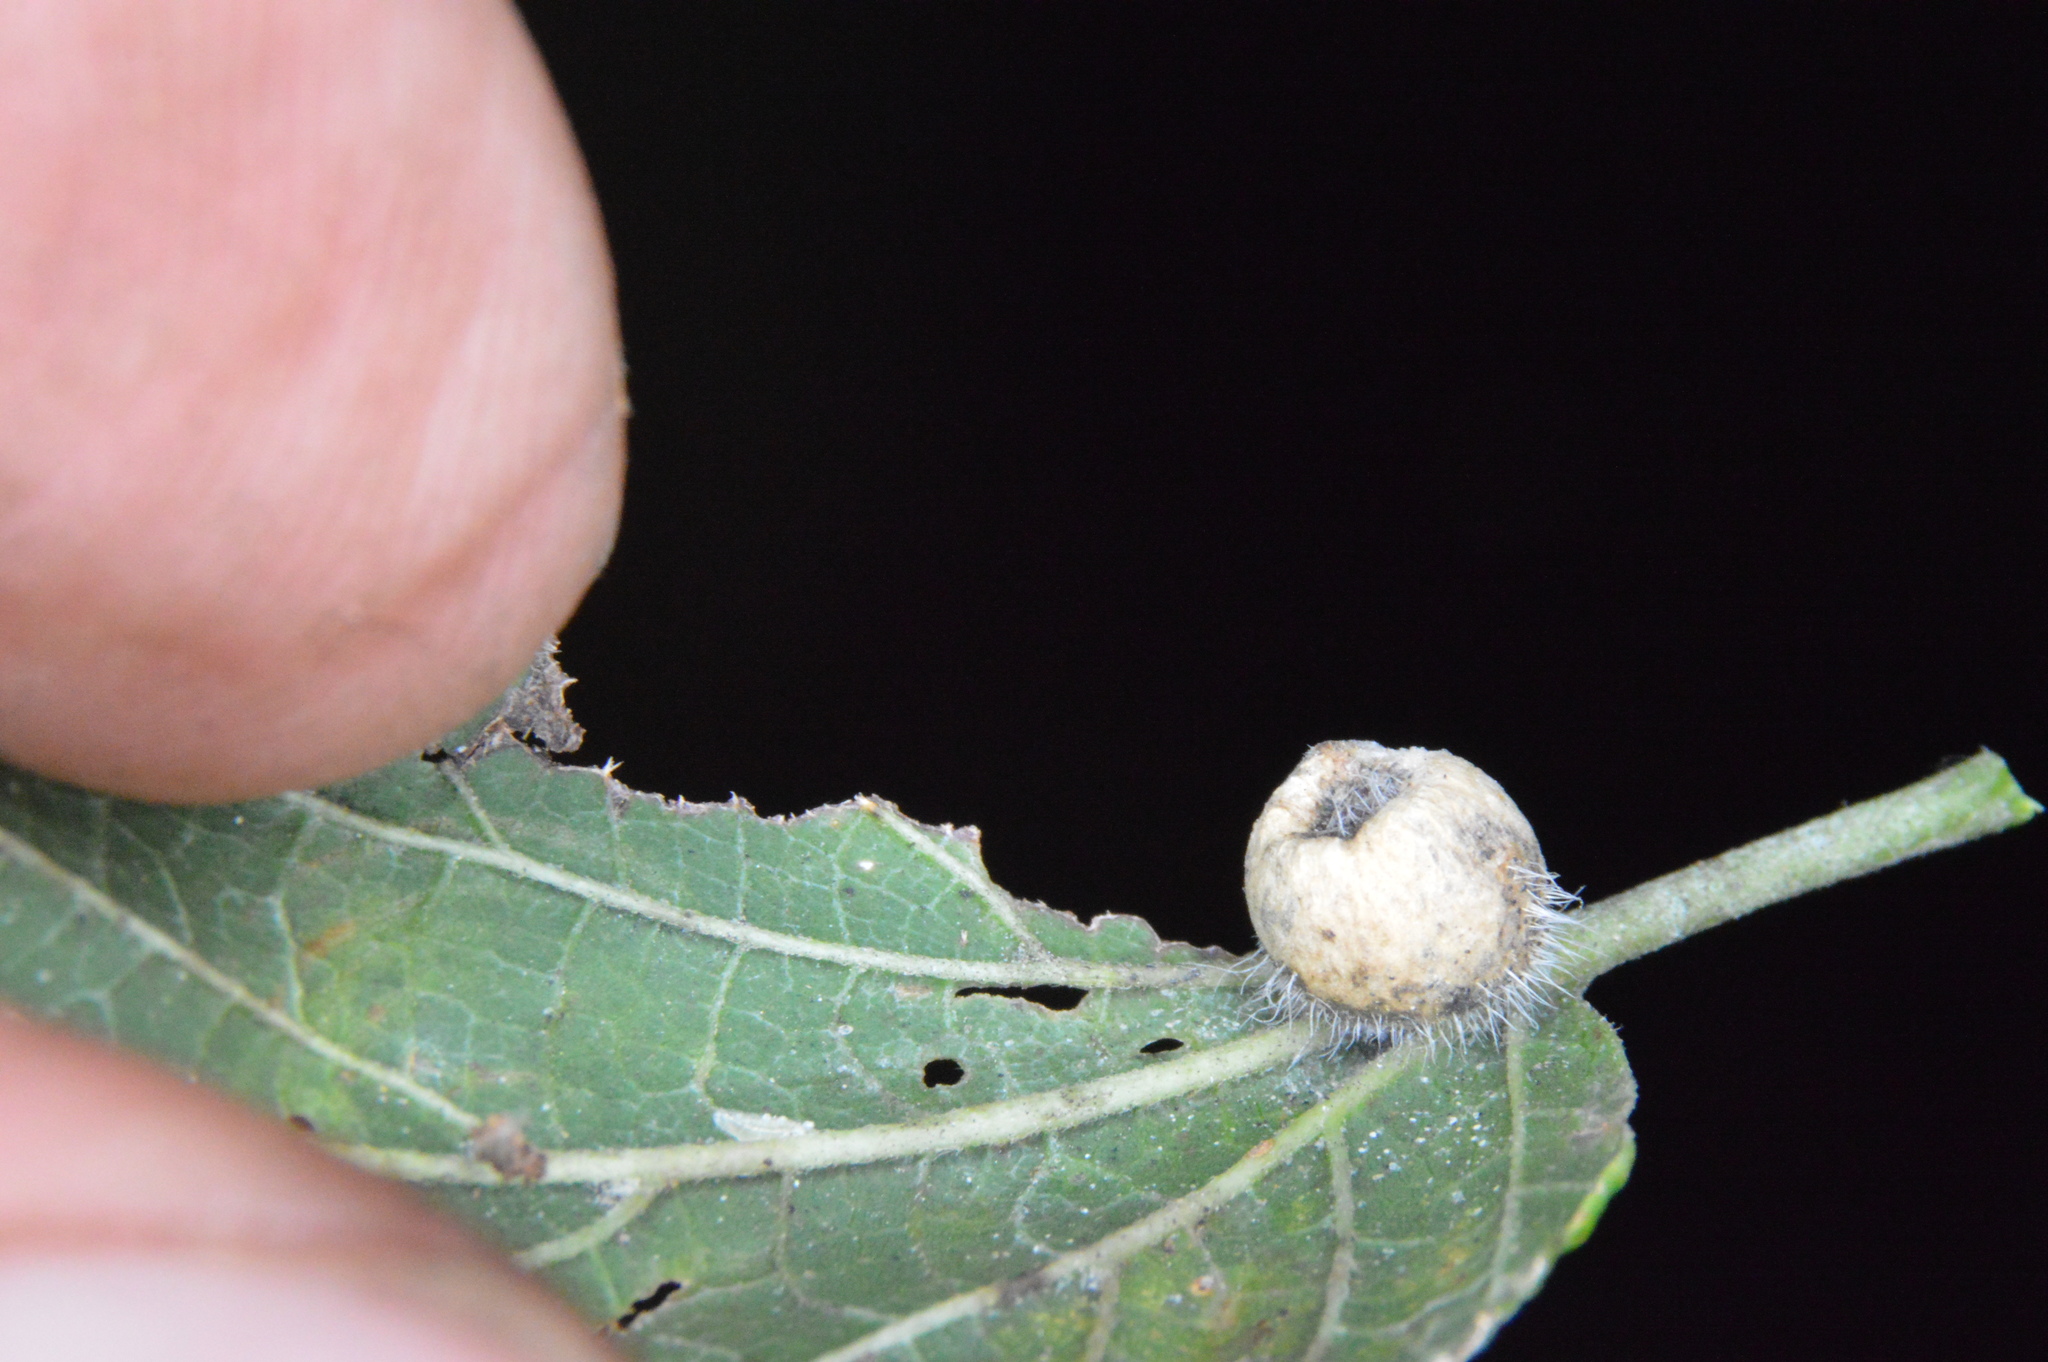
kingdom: Animalia
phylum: Arthropoda
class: Insecta
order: Diptera
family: Cecidomyiidae
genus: Celticecis
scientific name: Celticecis pubescens
